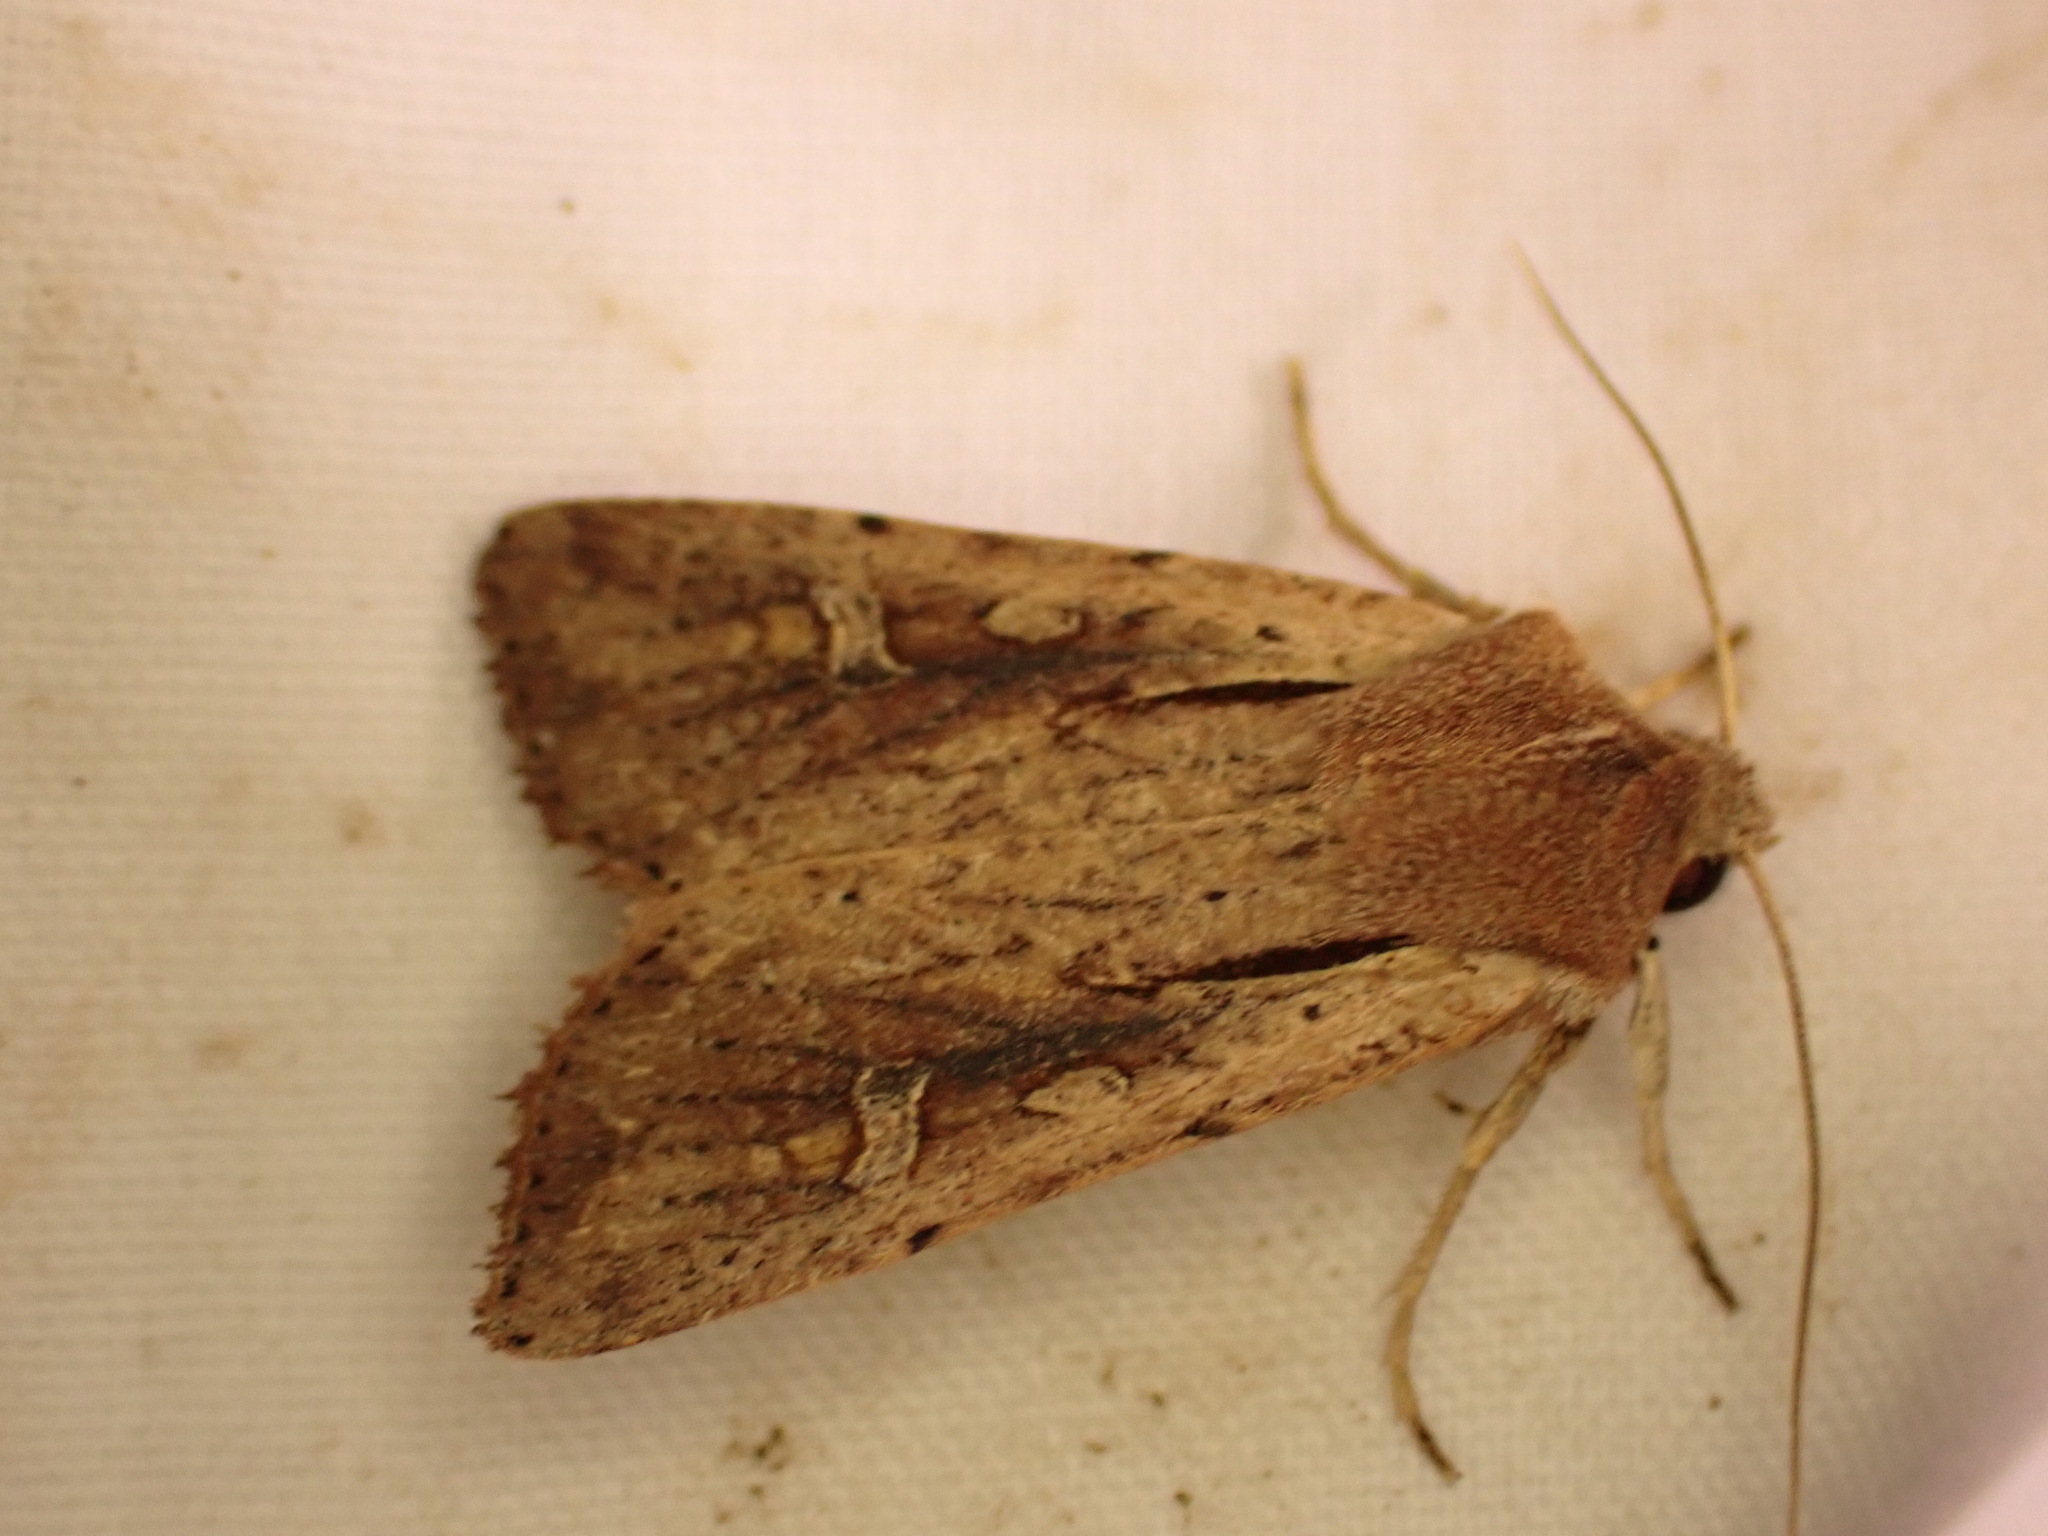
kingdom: Animalia
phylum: Arthropoda
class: Insecta
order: Lepidoptera
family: Noctuidae
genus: Ichneutica
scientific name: Ichneutica atristriga
